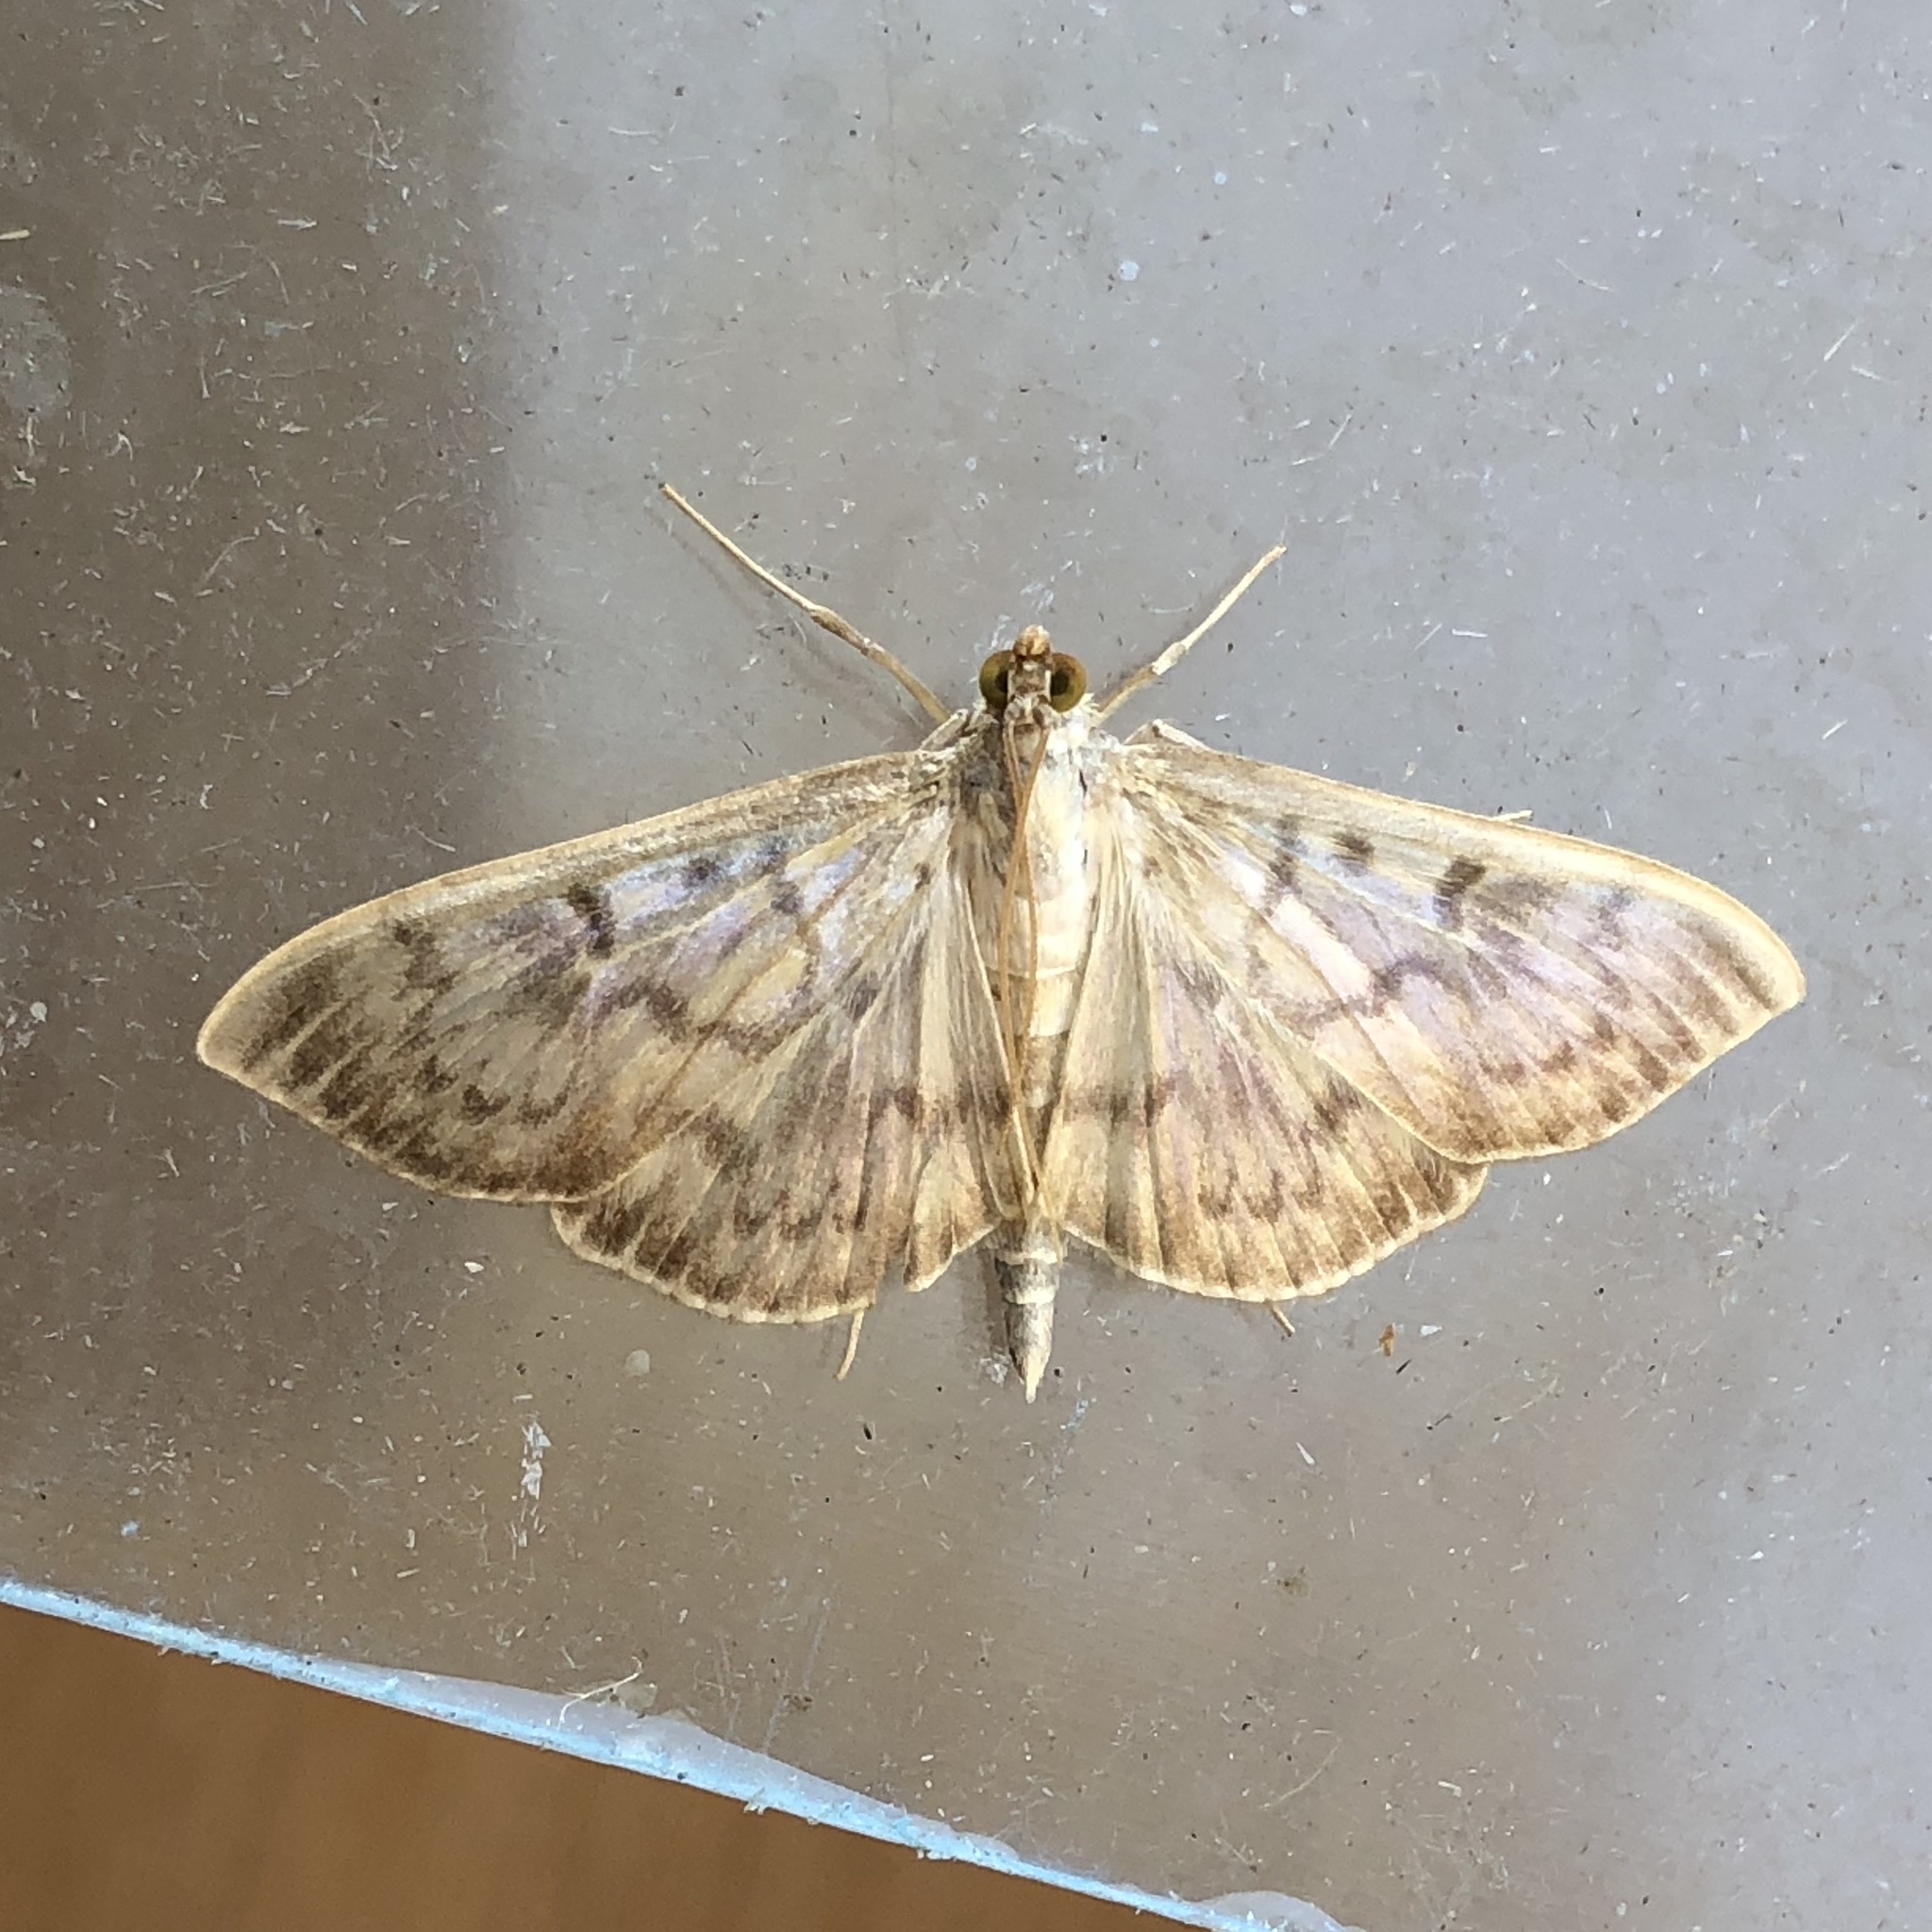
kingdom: Animalia
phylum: Arthropoda
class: Insecta
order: Lepidoptera
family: Crambidae
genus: Patania
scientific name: Patania ruralis
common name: Mother of pearl
